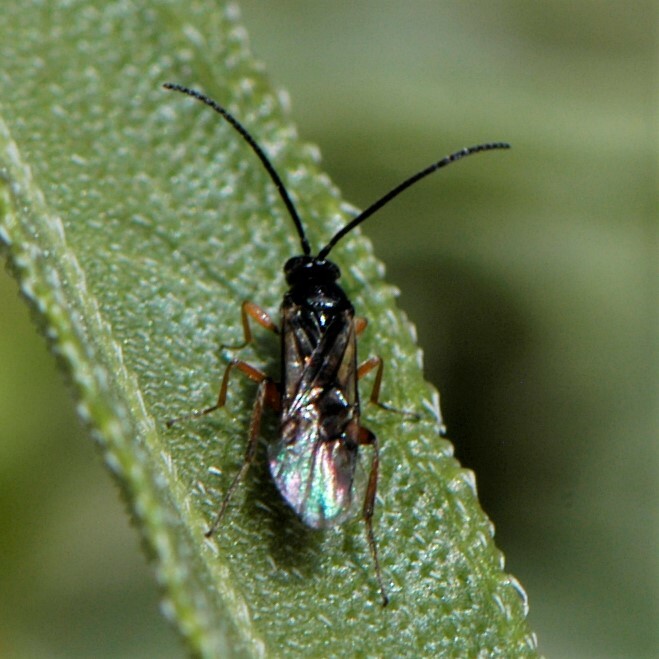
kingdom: Animalia
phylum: Arthropoda
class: Insecta
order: Hymenoptera
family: Braconidae
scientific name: Braconidae
